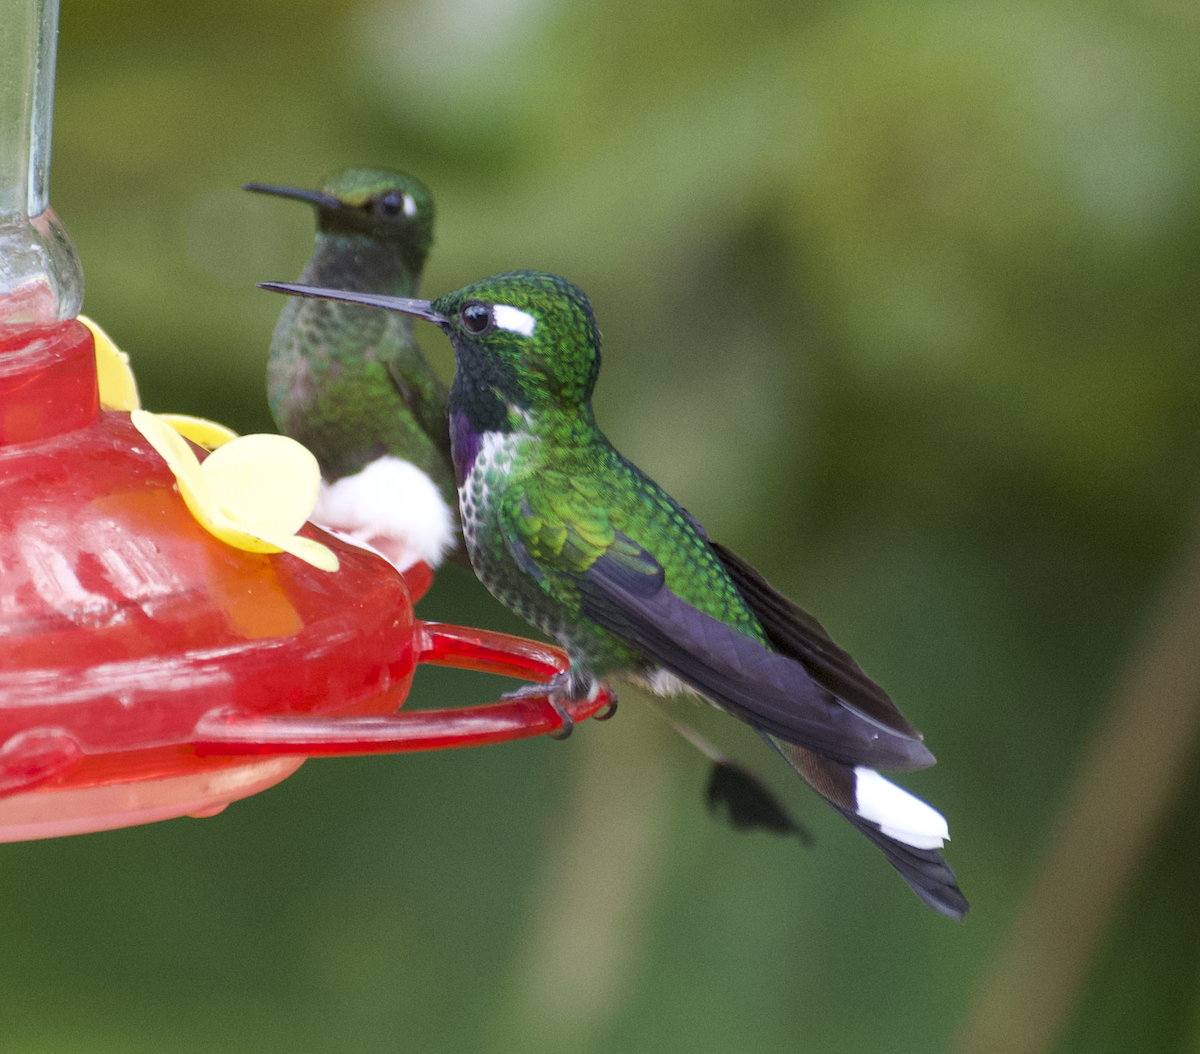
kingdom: Animalia
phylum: Chordata
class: Aves
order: Apodiformes
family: Trochilidae
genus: Urosticte
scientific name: Urosticte benjamini
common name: Purple-bibbed whitetip
